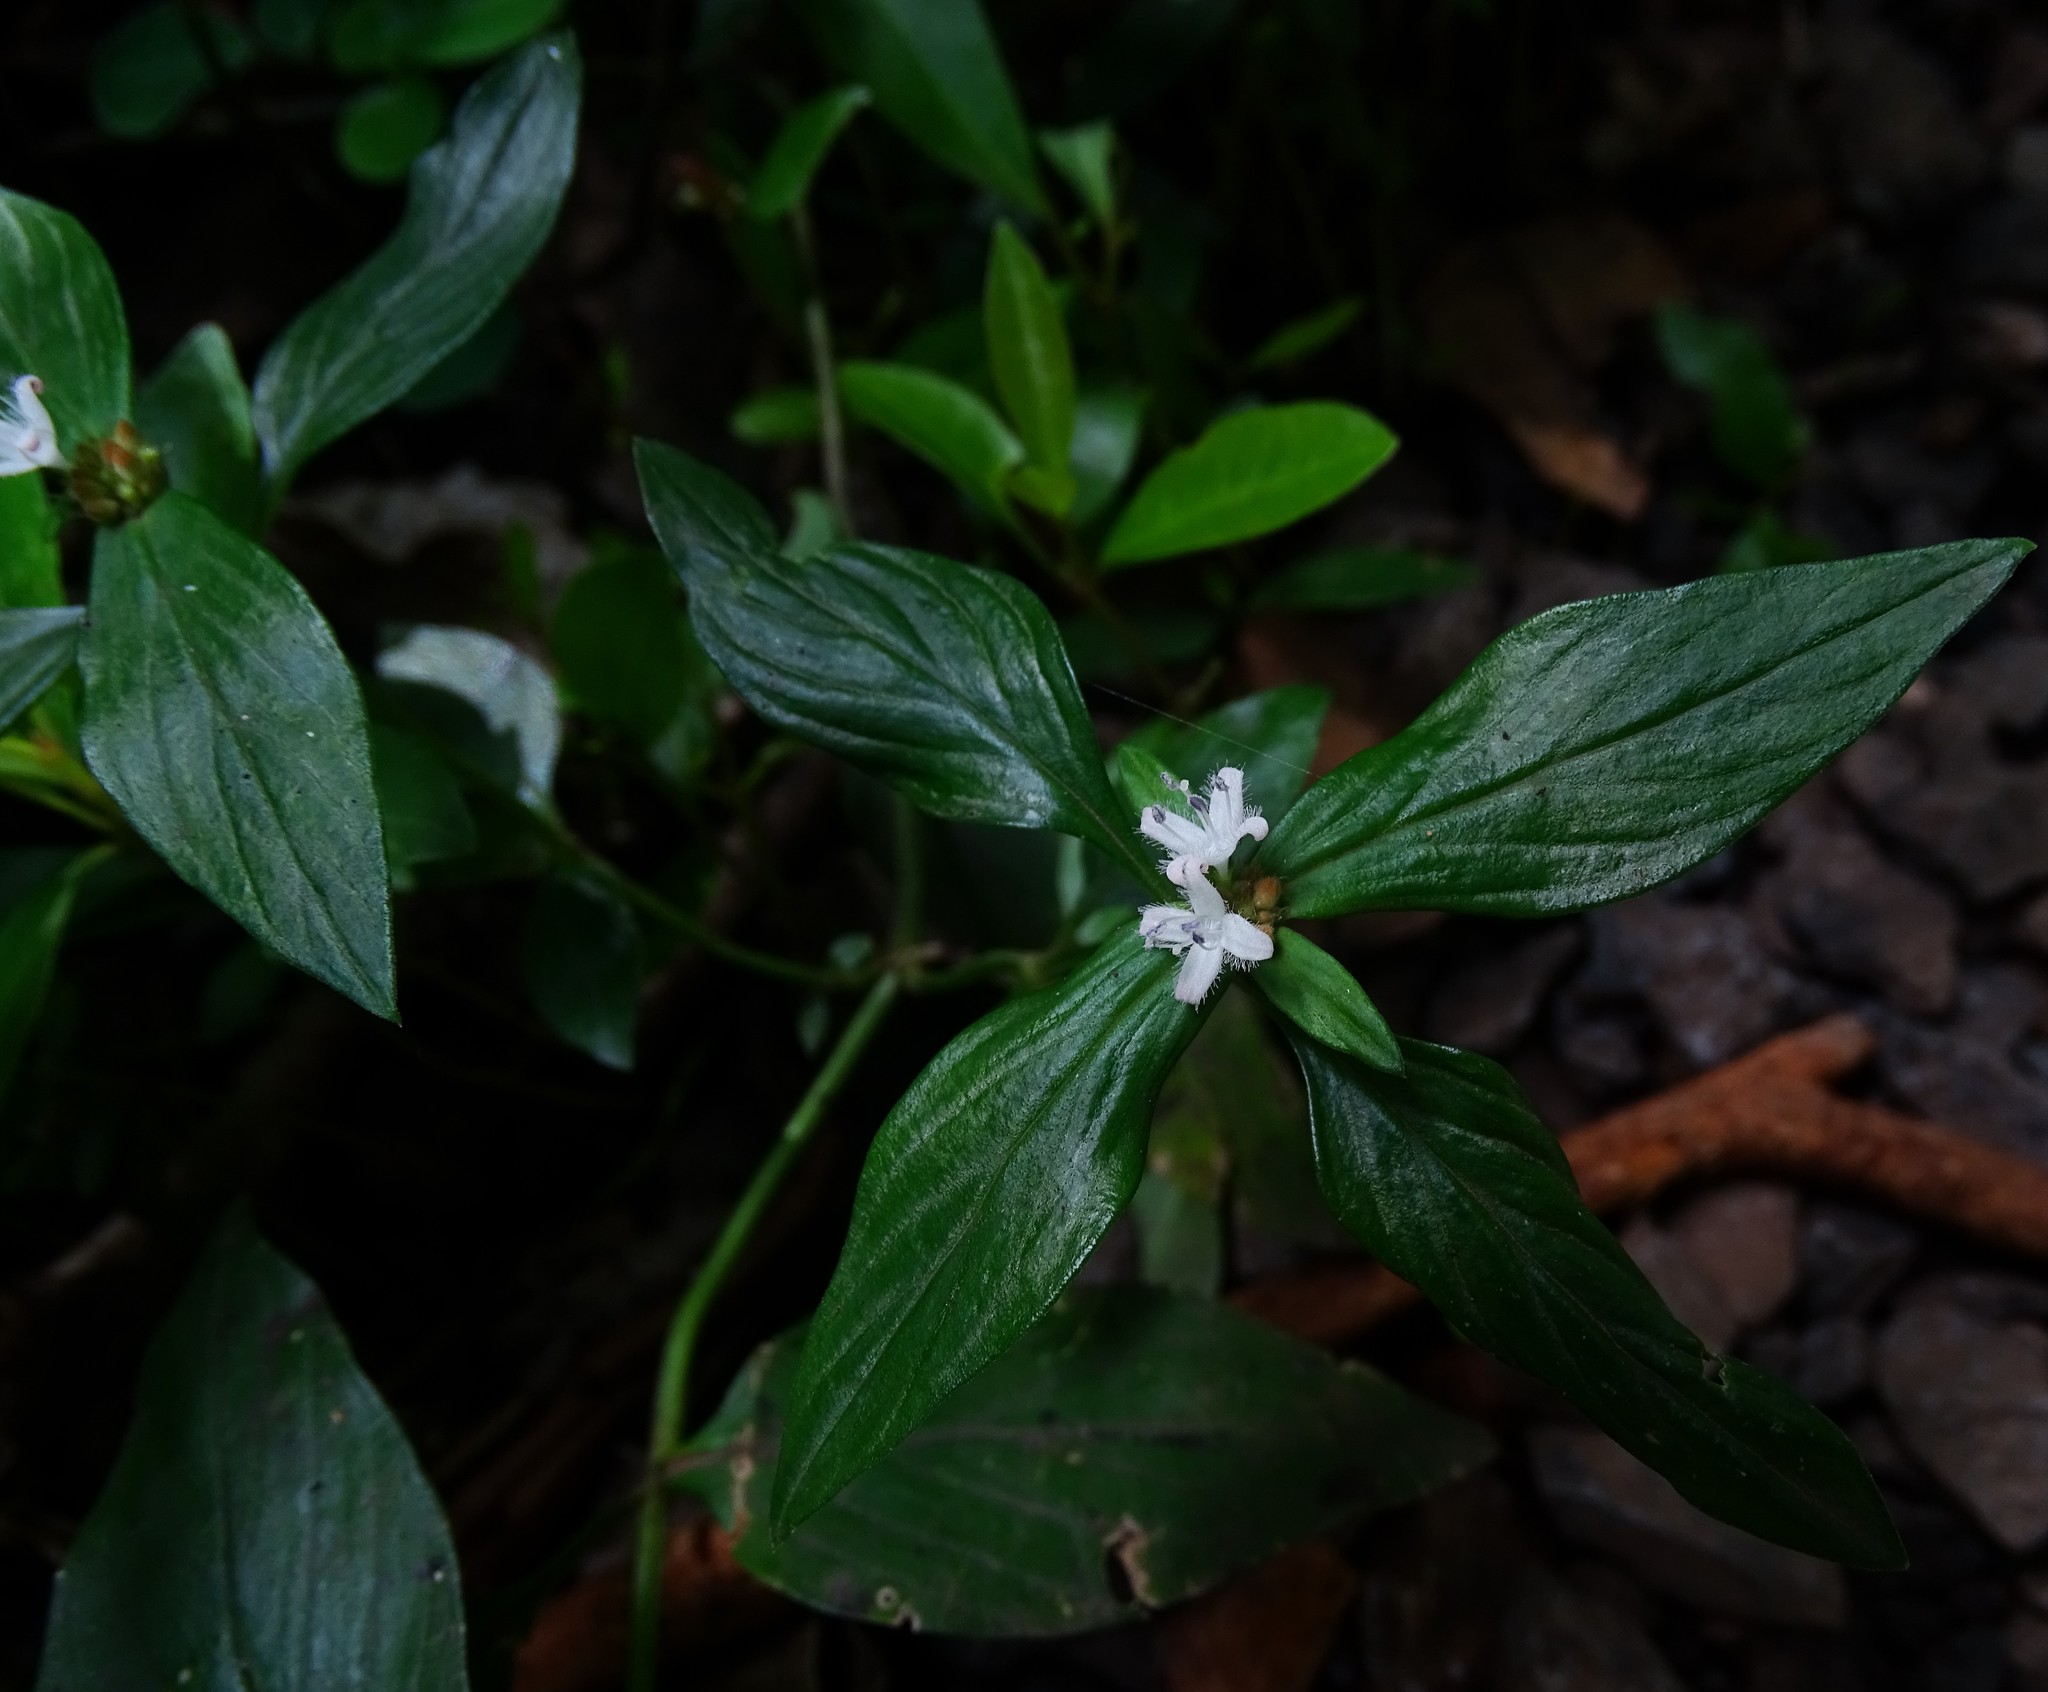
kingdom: Plantae
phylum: Tracheophyta
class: Magnoliopsida
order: Gentianales
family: Rubiaceae
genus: Spermacoce
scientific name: Spermacoce remota
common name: Woodland false buttonweed
